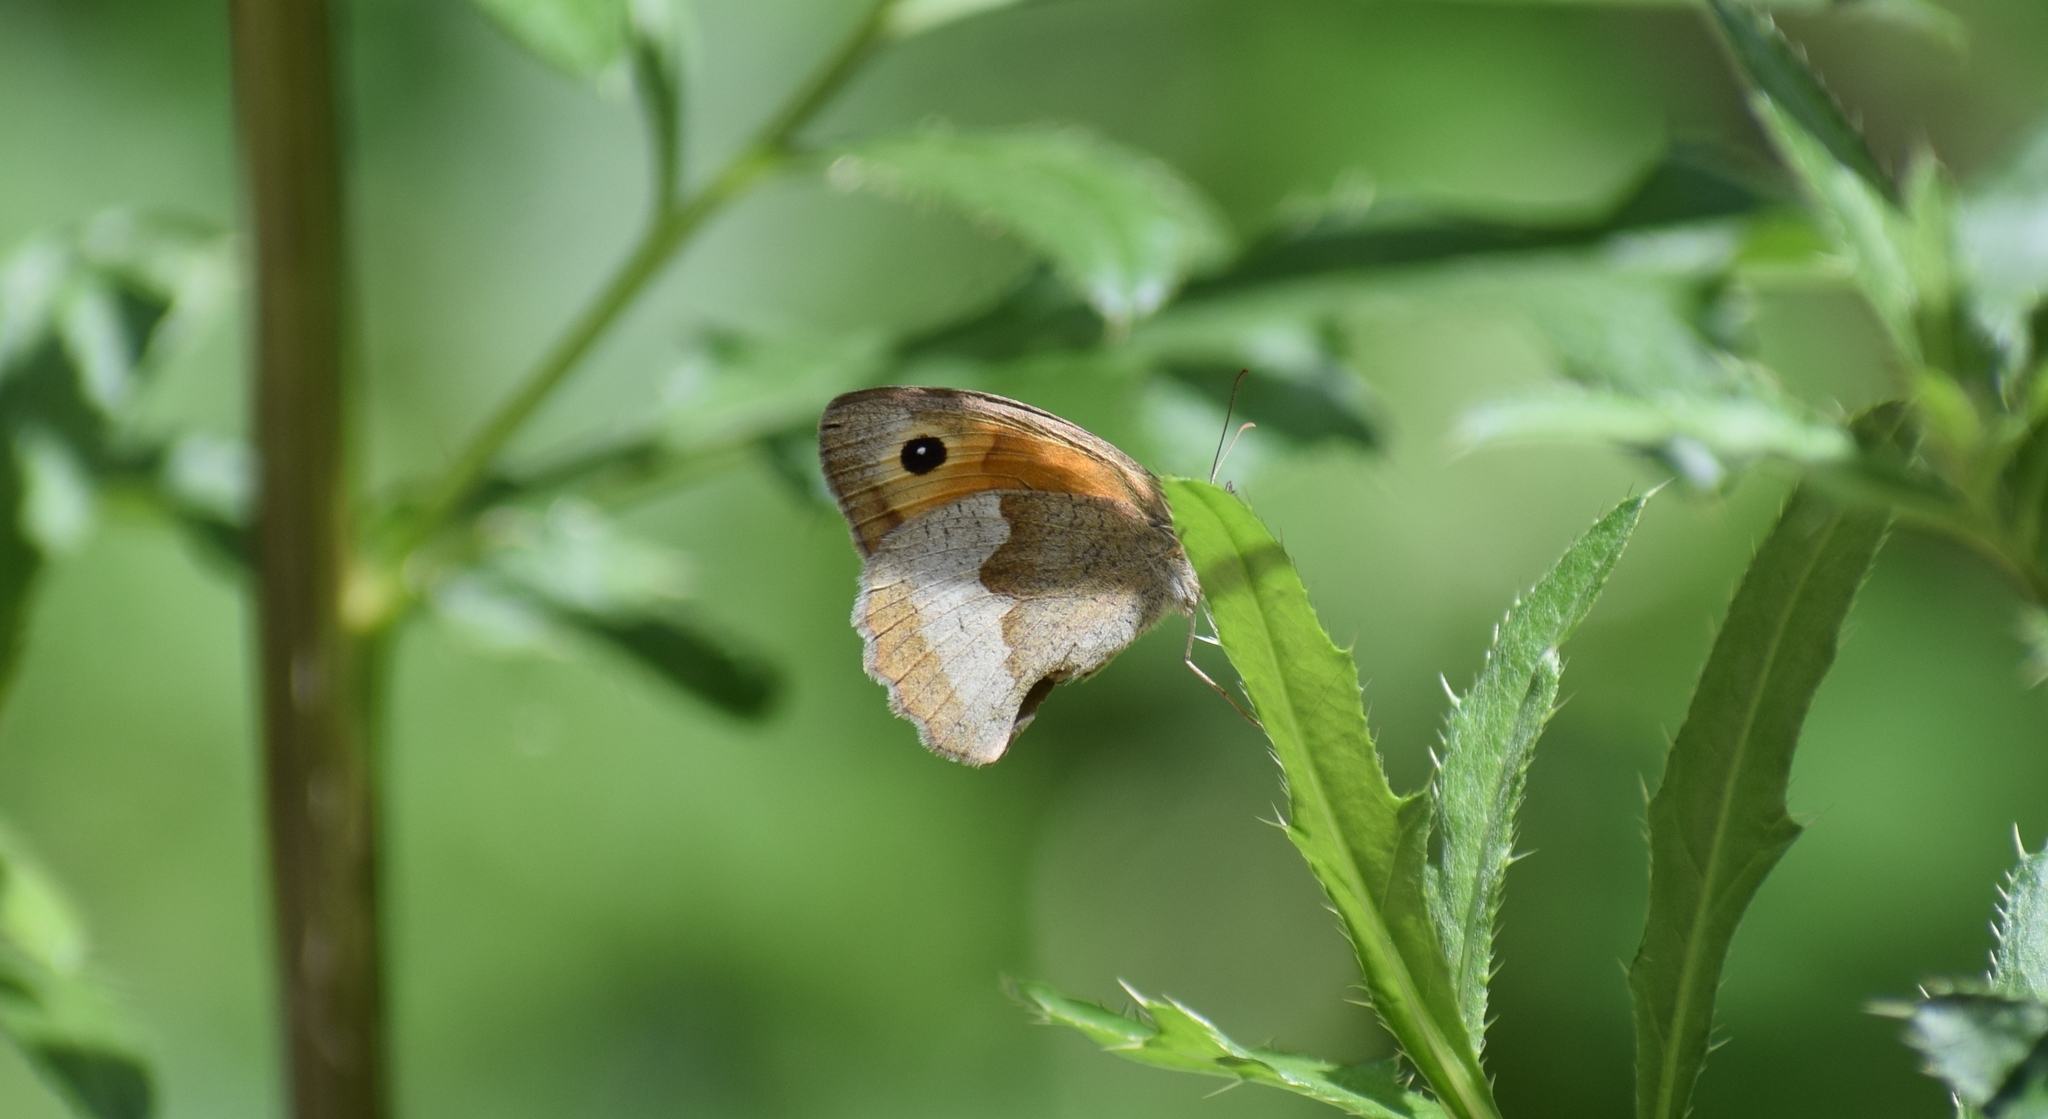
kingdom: Animalia
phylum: Arthropoda
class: Insecta
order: Lepidoptera
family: Nymphalidae
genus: Maniola
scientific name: Maniola jurtina
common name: Meadow brown
